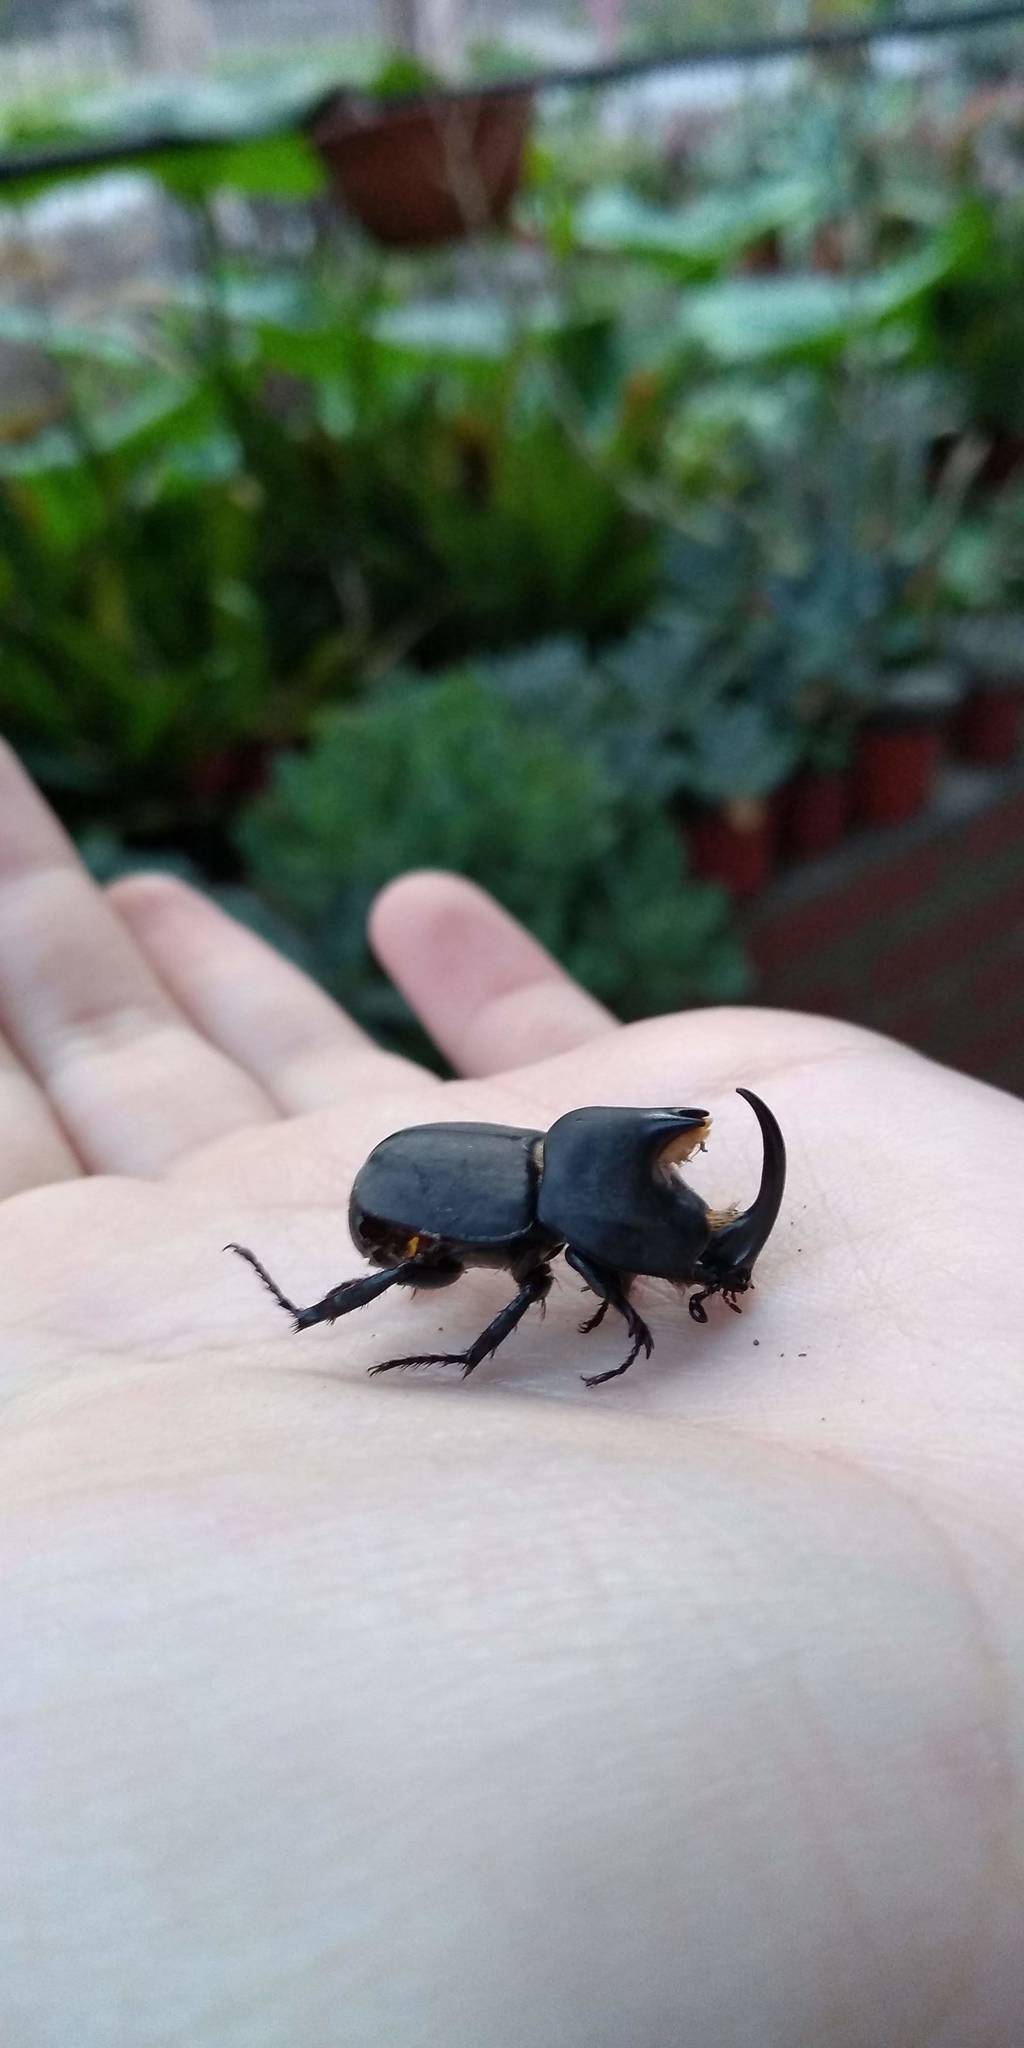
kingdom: Animalia
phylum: Arthropoda
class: Insecta
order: Coleoptera
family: Scarabaeidae
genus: Diloboderus
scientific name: Diloboderus abderus
